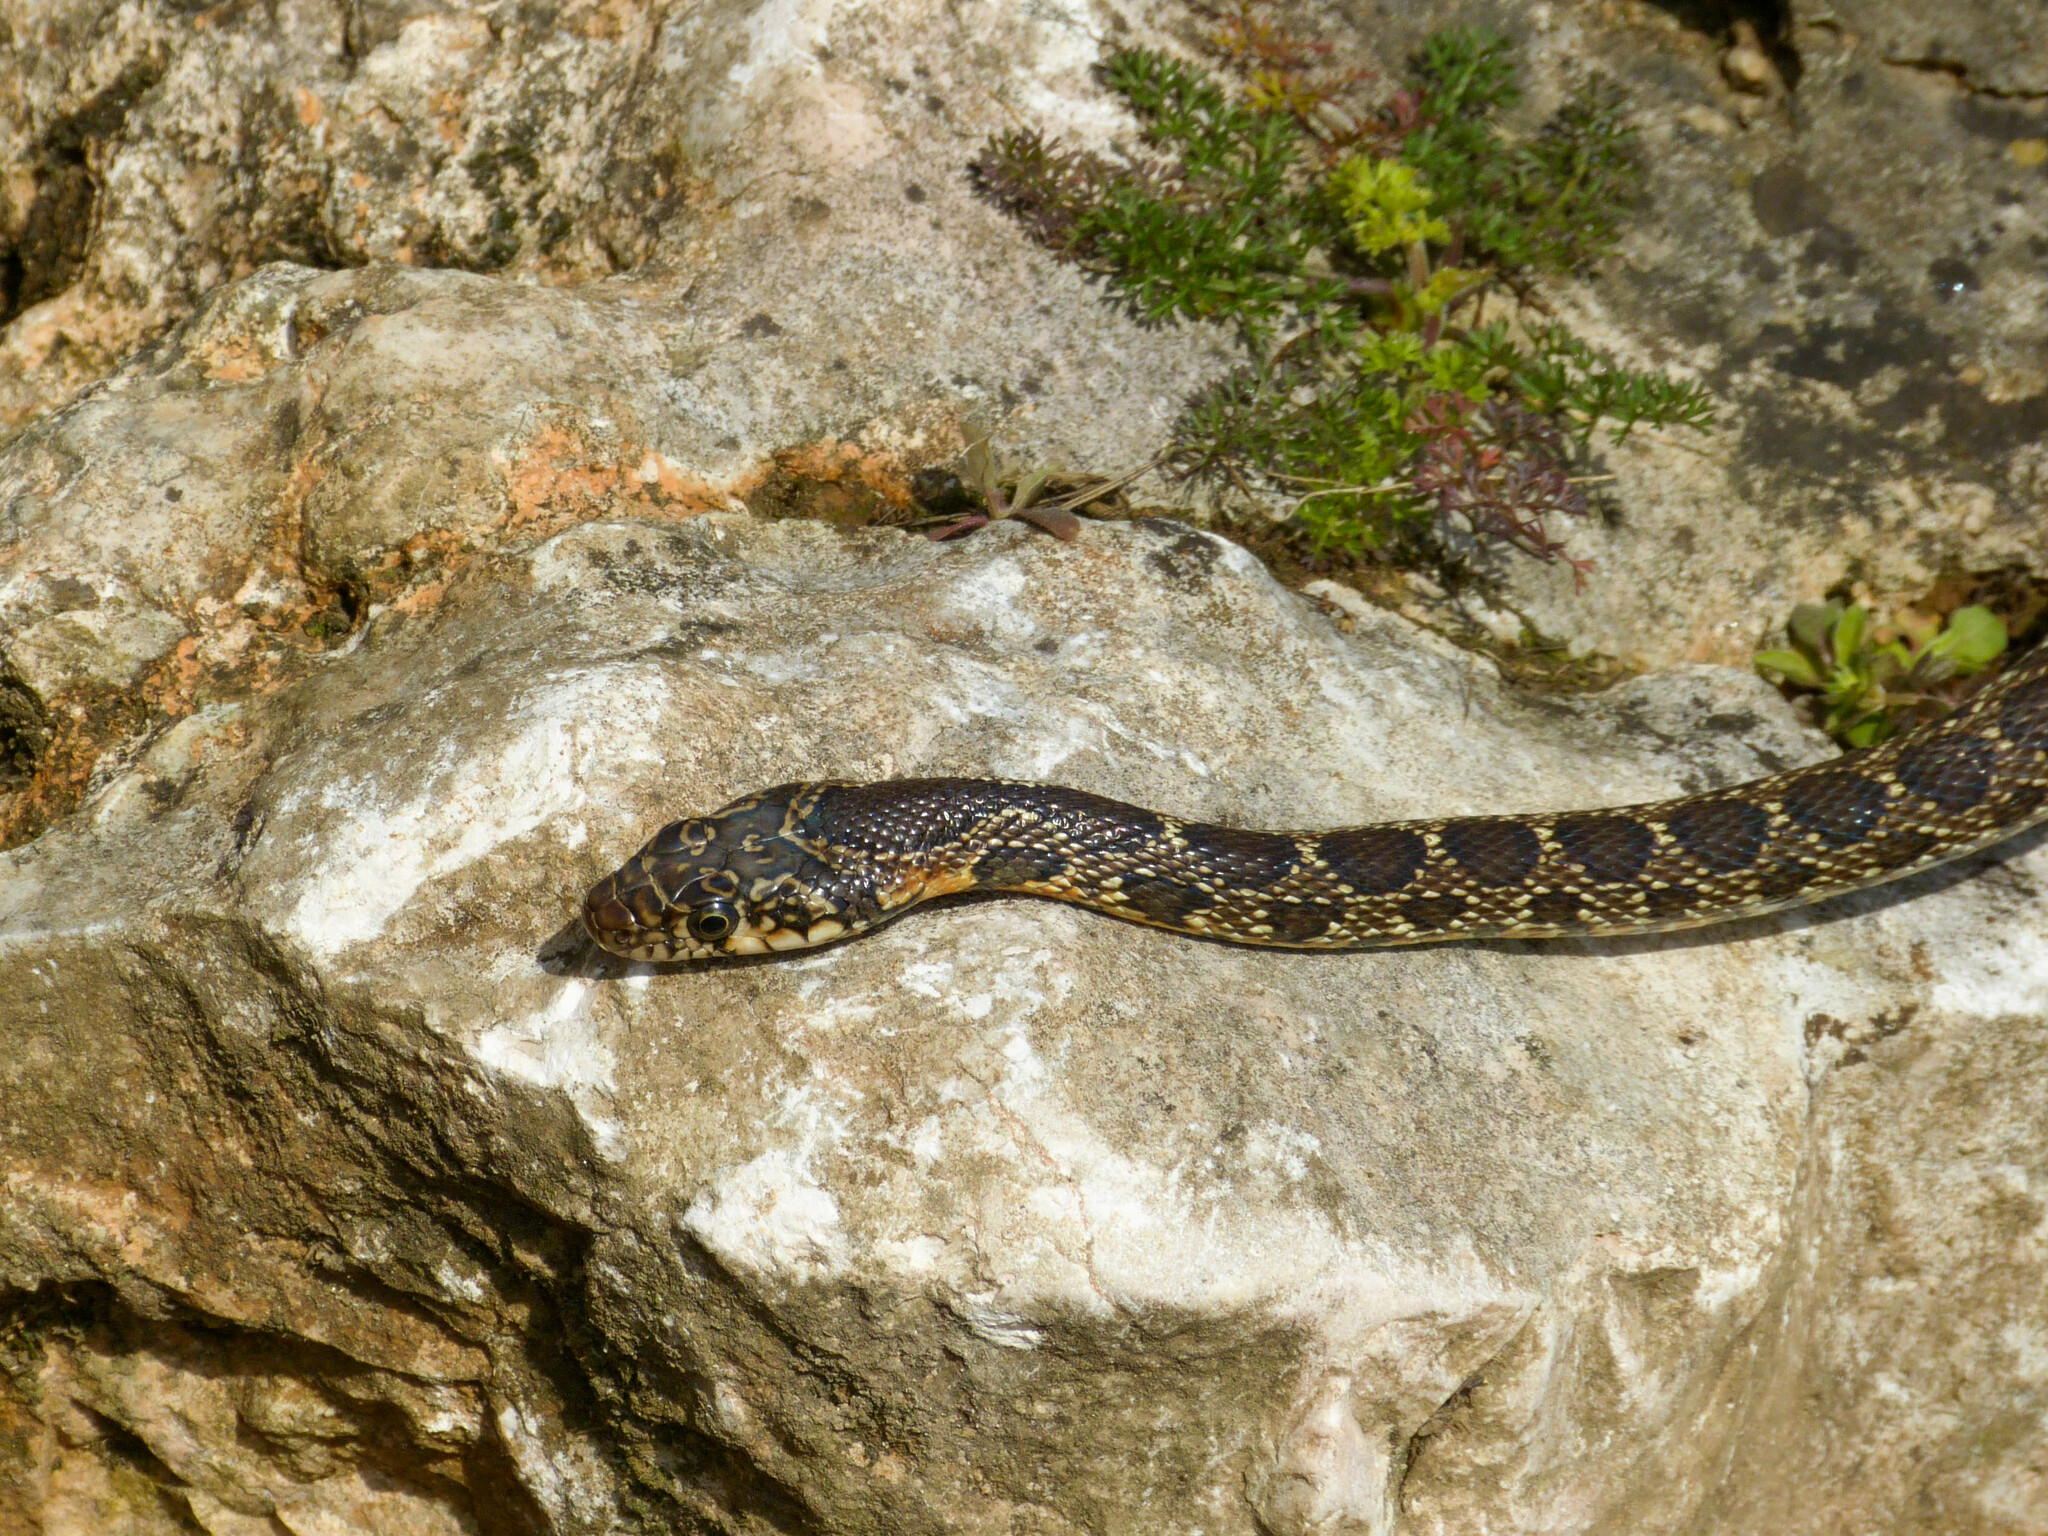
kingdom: Animalia
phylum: Chordata
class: Squamata
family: Colubridae
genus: Hemorrhois
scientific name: Hemorrhois hippocrepis
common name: Horseshoe whip snake
